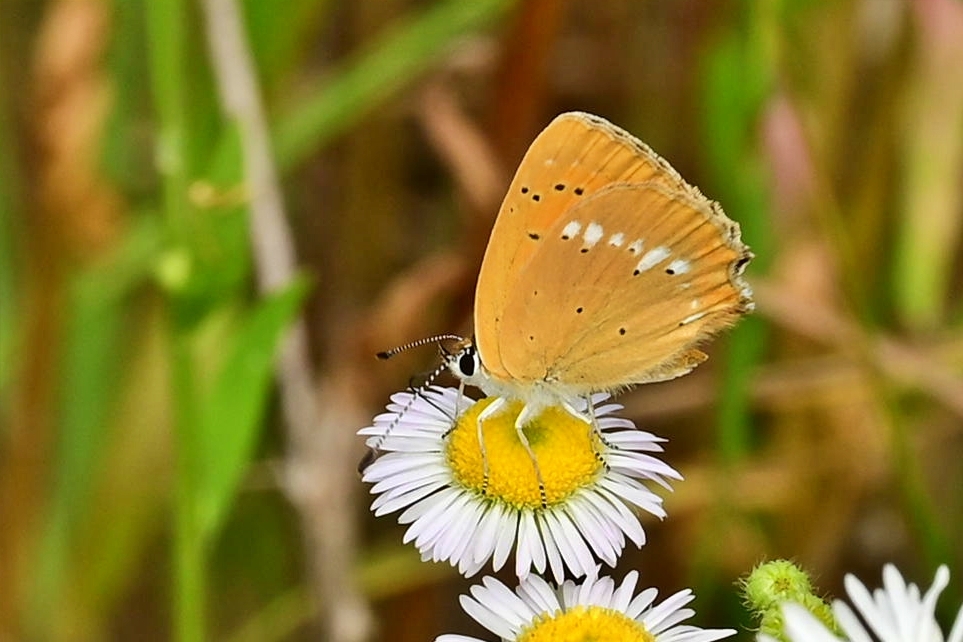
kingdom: Animalia
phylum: Arthropoda
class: Insecta
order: Lepidoptera
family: Lycaenidae
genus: Lycaena
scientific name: Lycaena virgaureae
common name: Scarce copper
